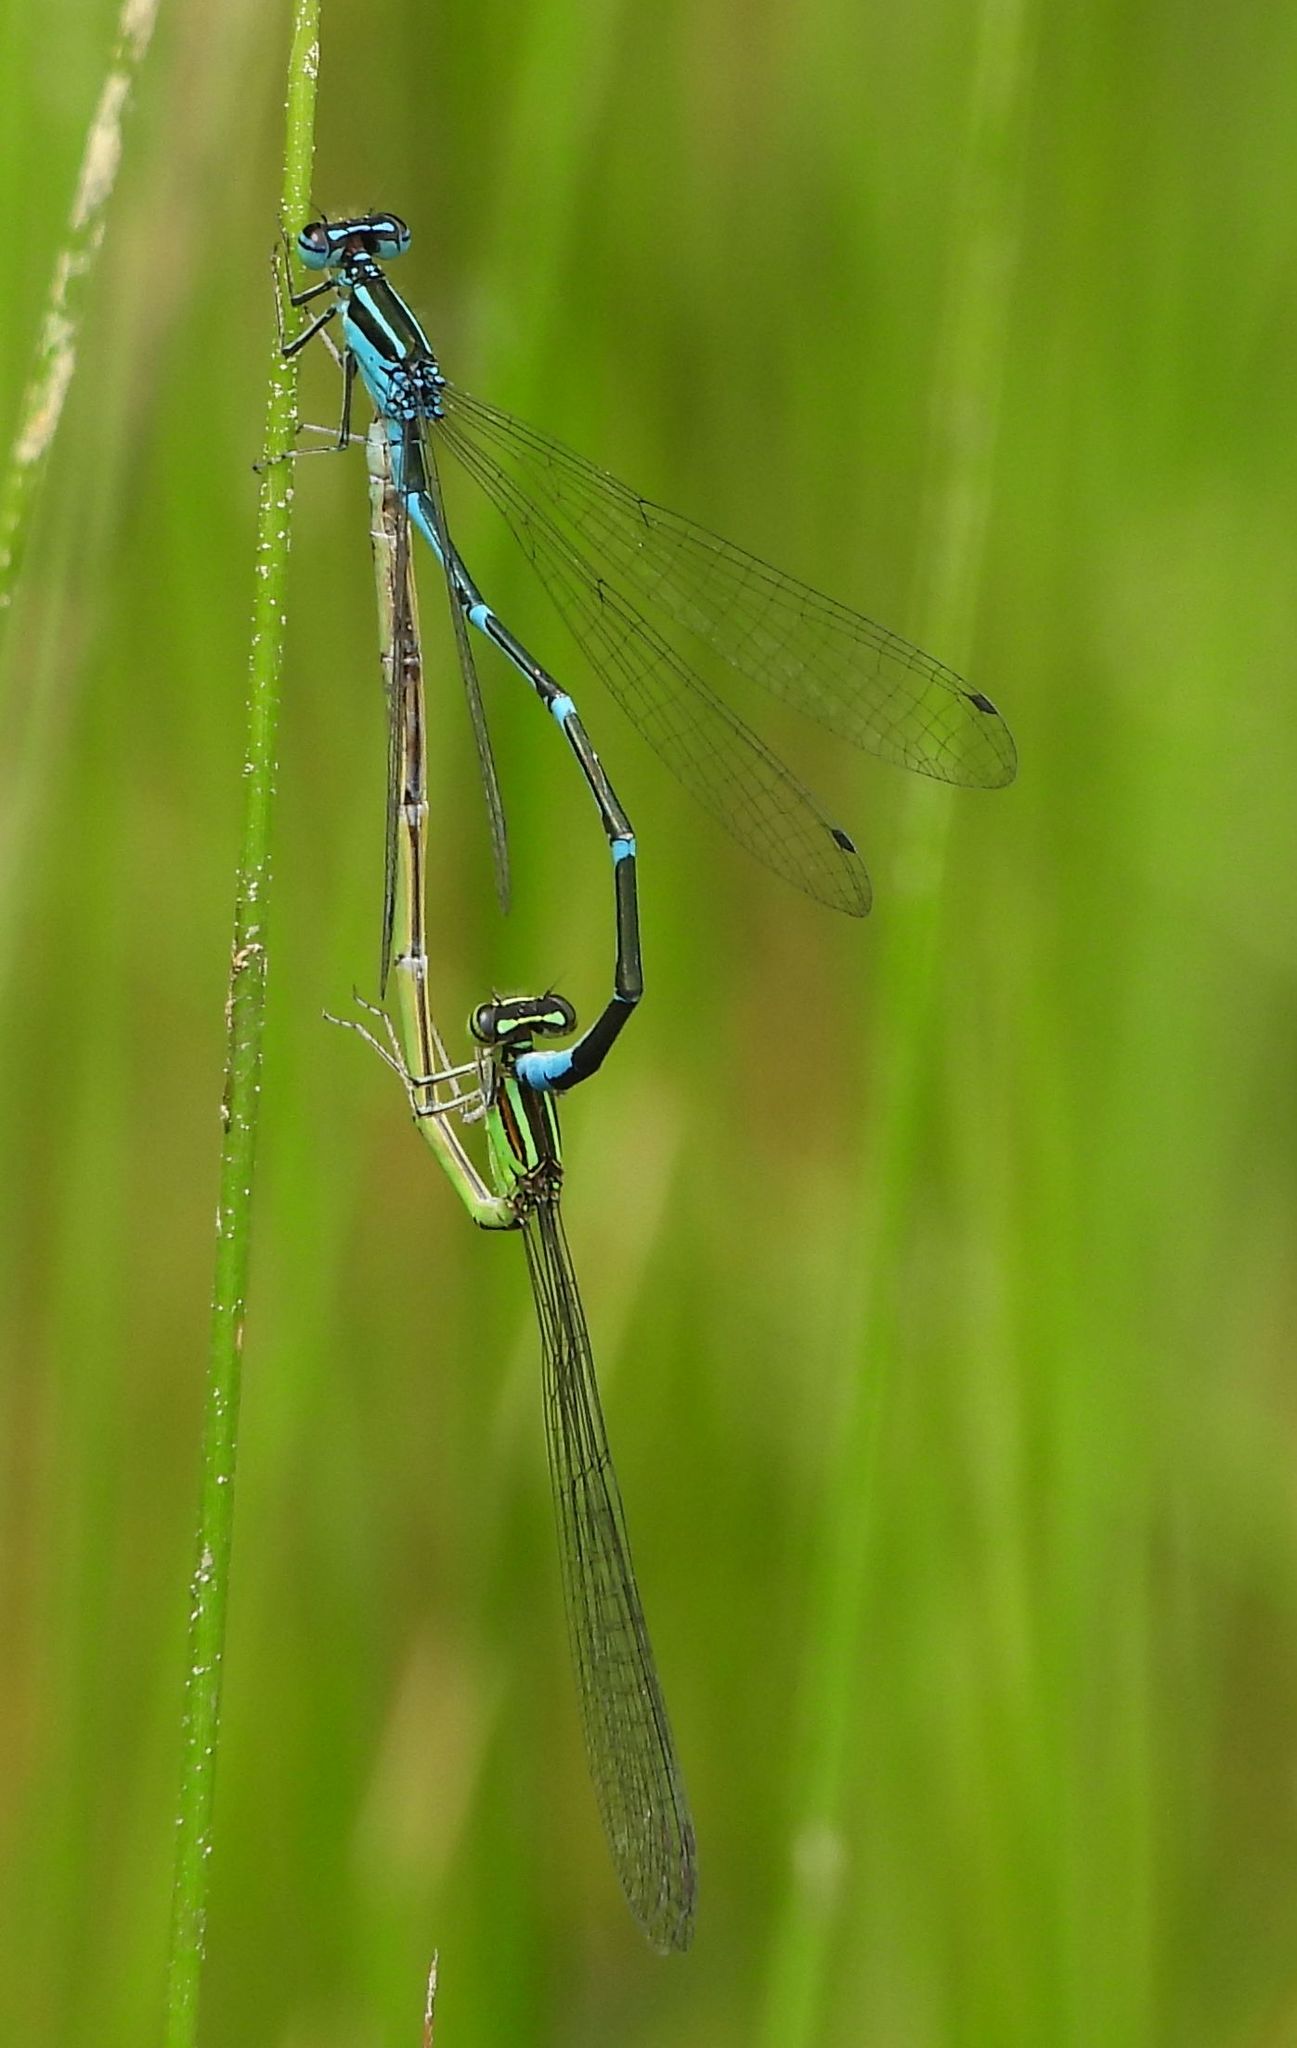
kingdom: Animalia
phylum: Arthropoda
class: Insecta
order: Odonata
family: Coenagrionidae
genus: Enallagma
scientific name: Enallagma exsulans
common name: Stream bluet
